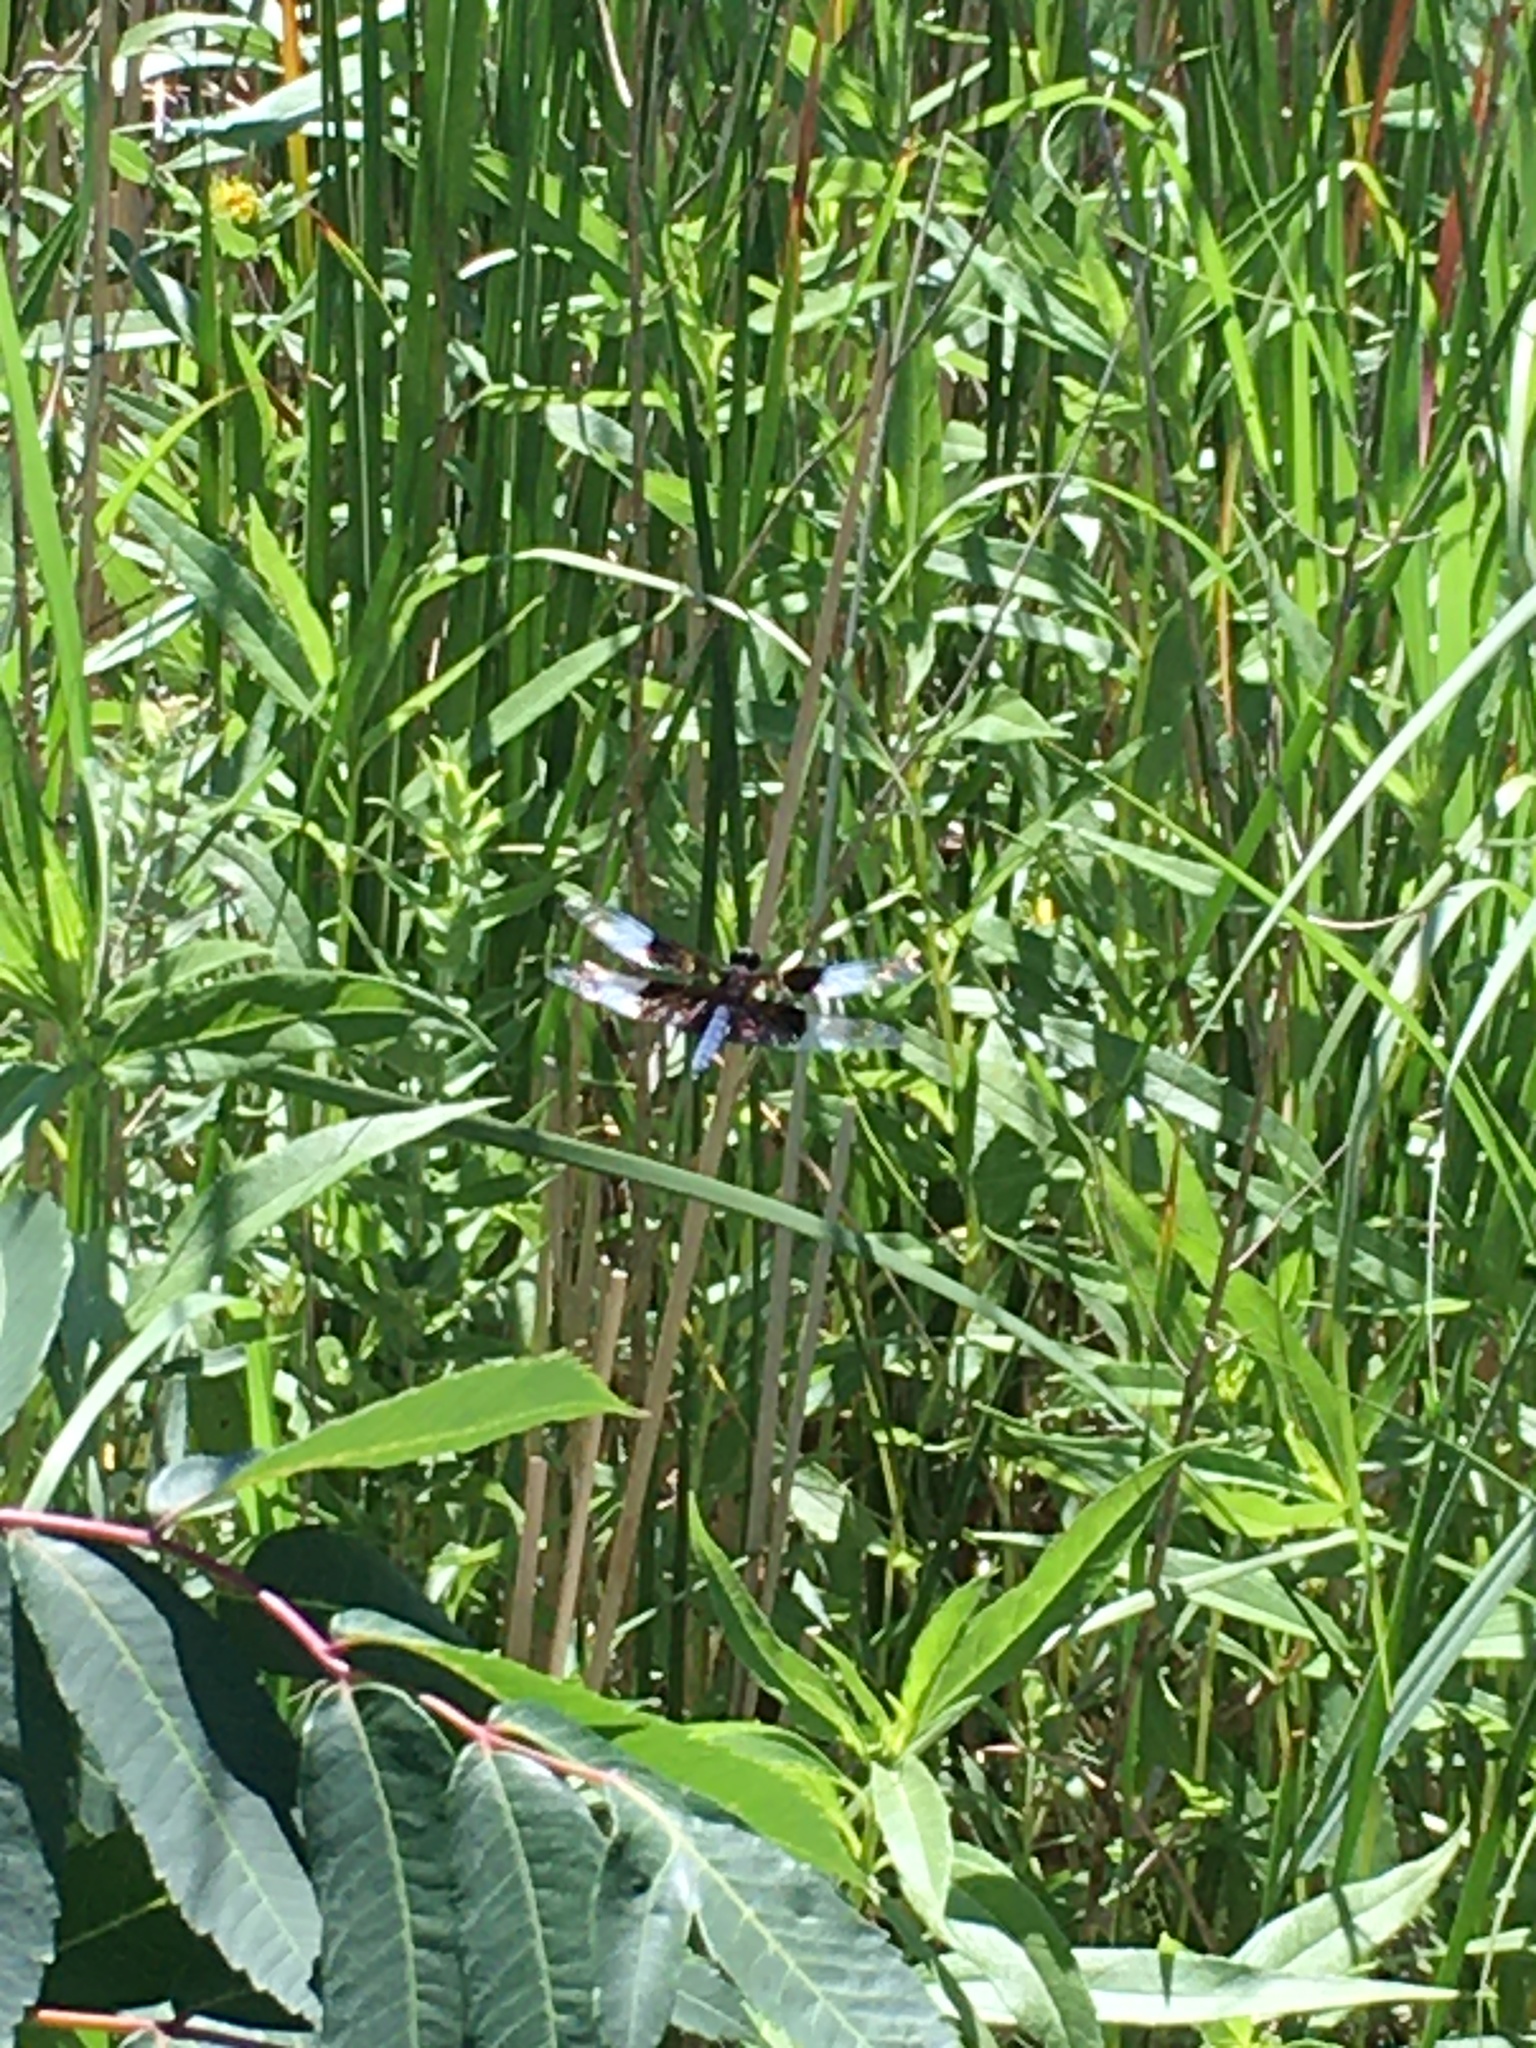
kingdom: Animalia
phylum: Arthropoda
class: Insecta
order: Odonata
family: Libellulidae
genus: Libellula
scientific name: Libellula luctuosa
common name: Widow skimmer
